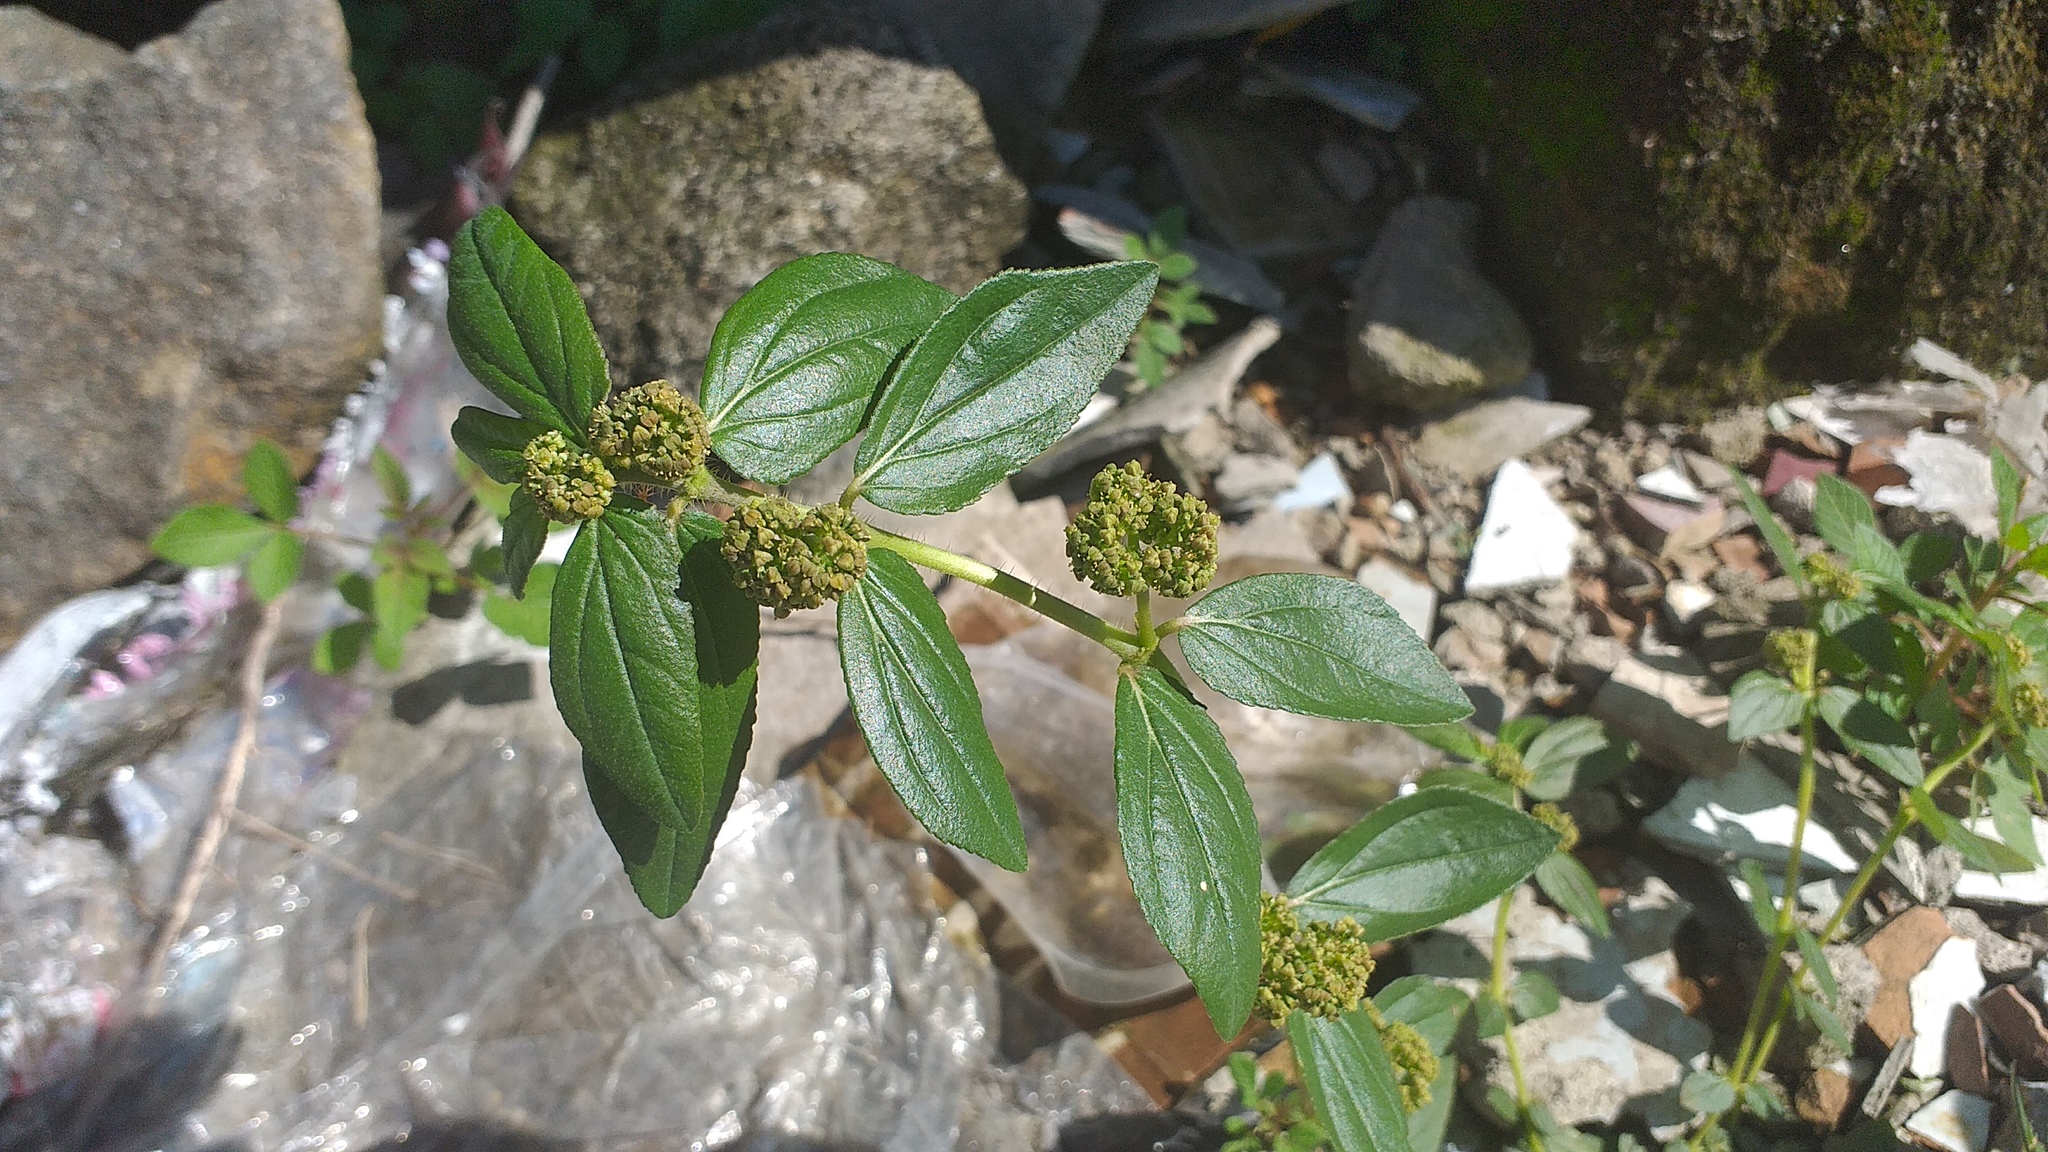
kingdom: Plantae
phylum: Tracheophyta
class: Magnoliopsida
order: Malpighiales
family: Euphorbiaceae
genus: Euphorbia
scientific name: Euphorbia hirta
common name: Pillpod sandmat
